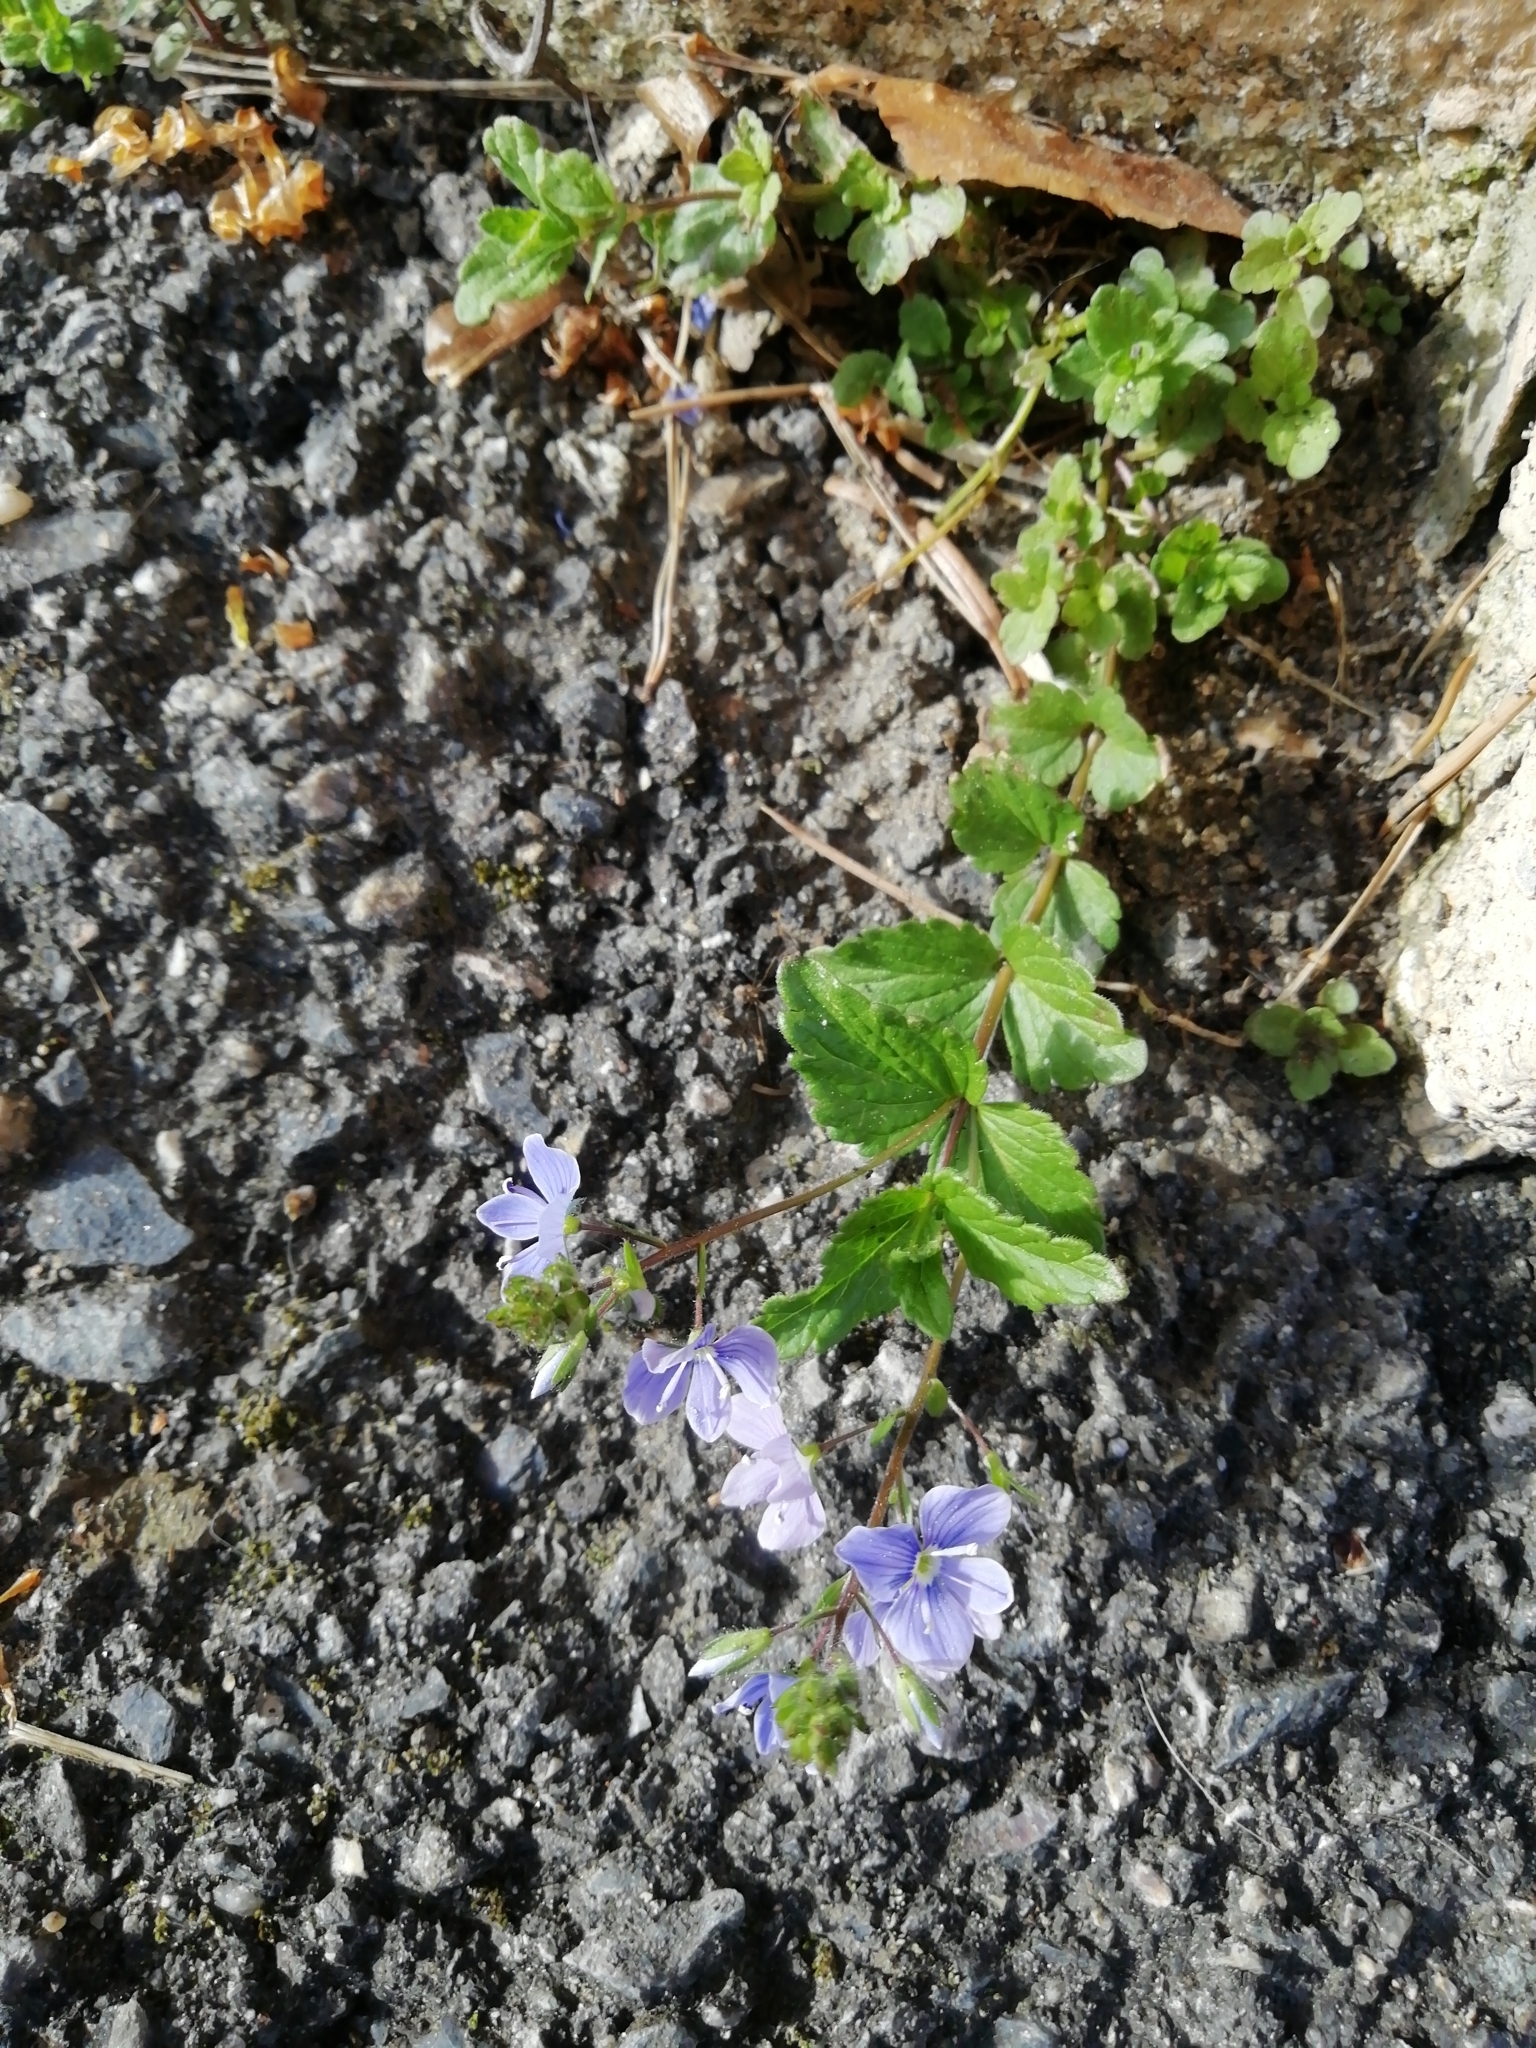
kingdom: Plantae
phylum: Tracheophyta
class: Magnoliopsida
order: Lamiales
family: Plantaginaceae
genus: Veronica
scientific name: Veronica chamaedrys
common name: Germander speedwell
